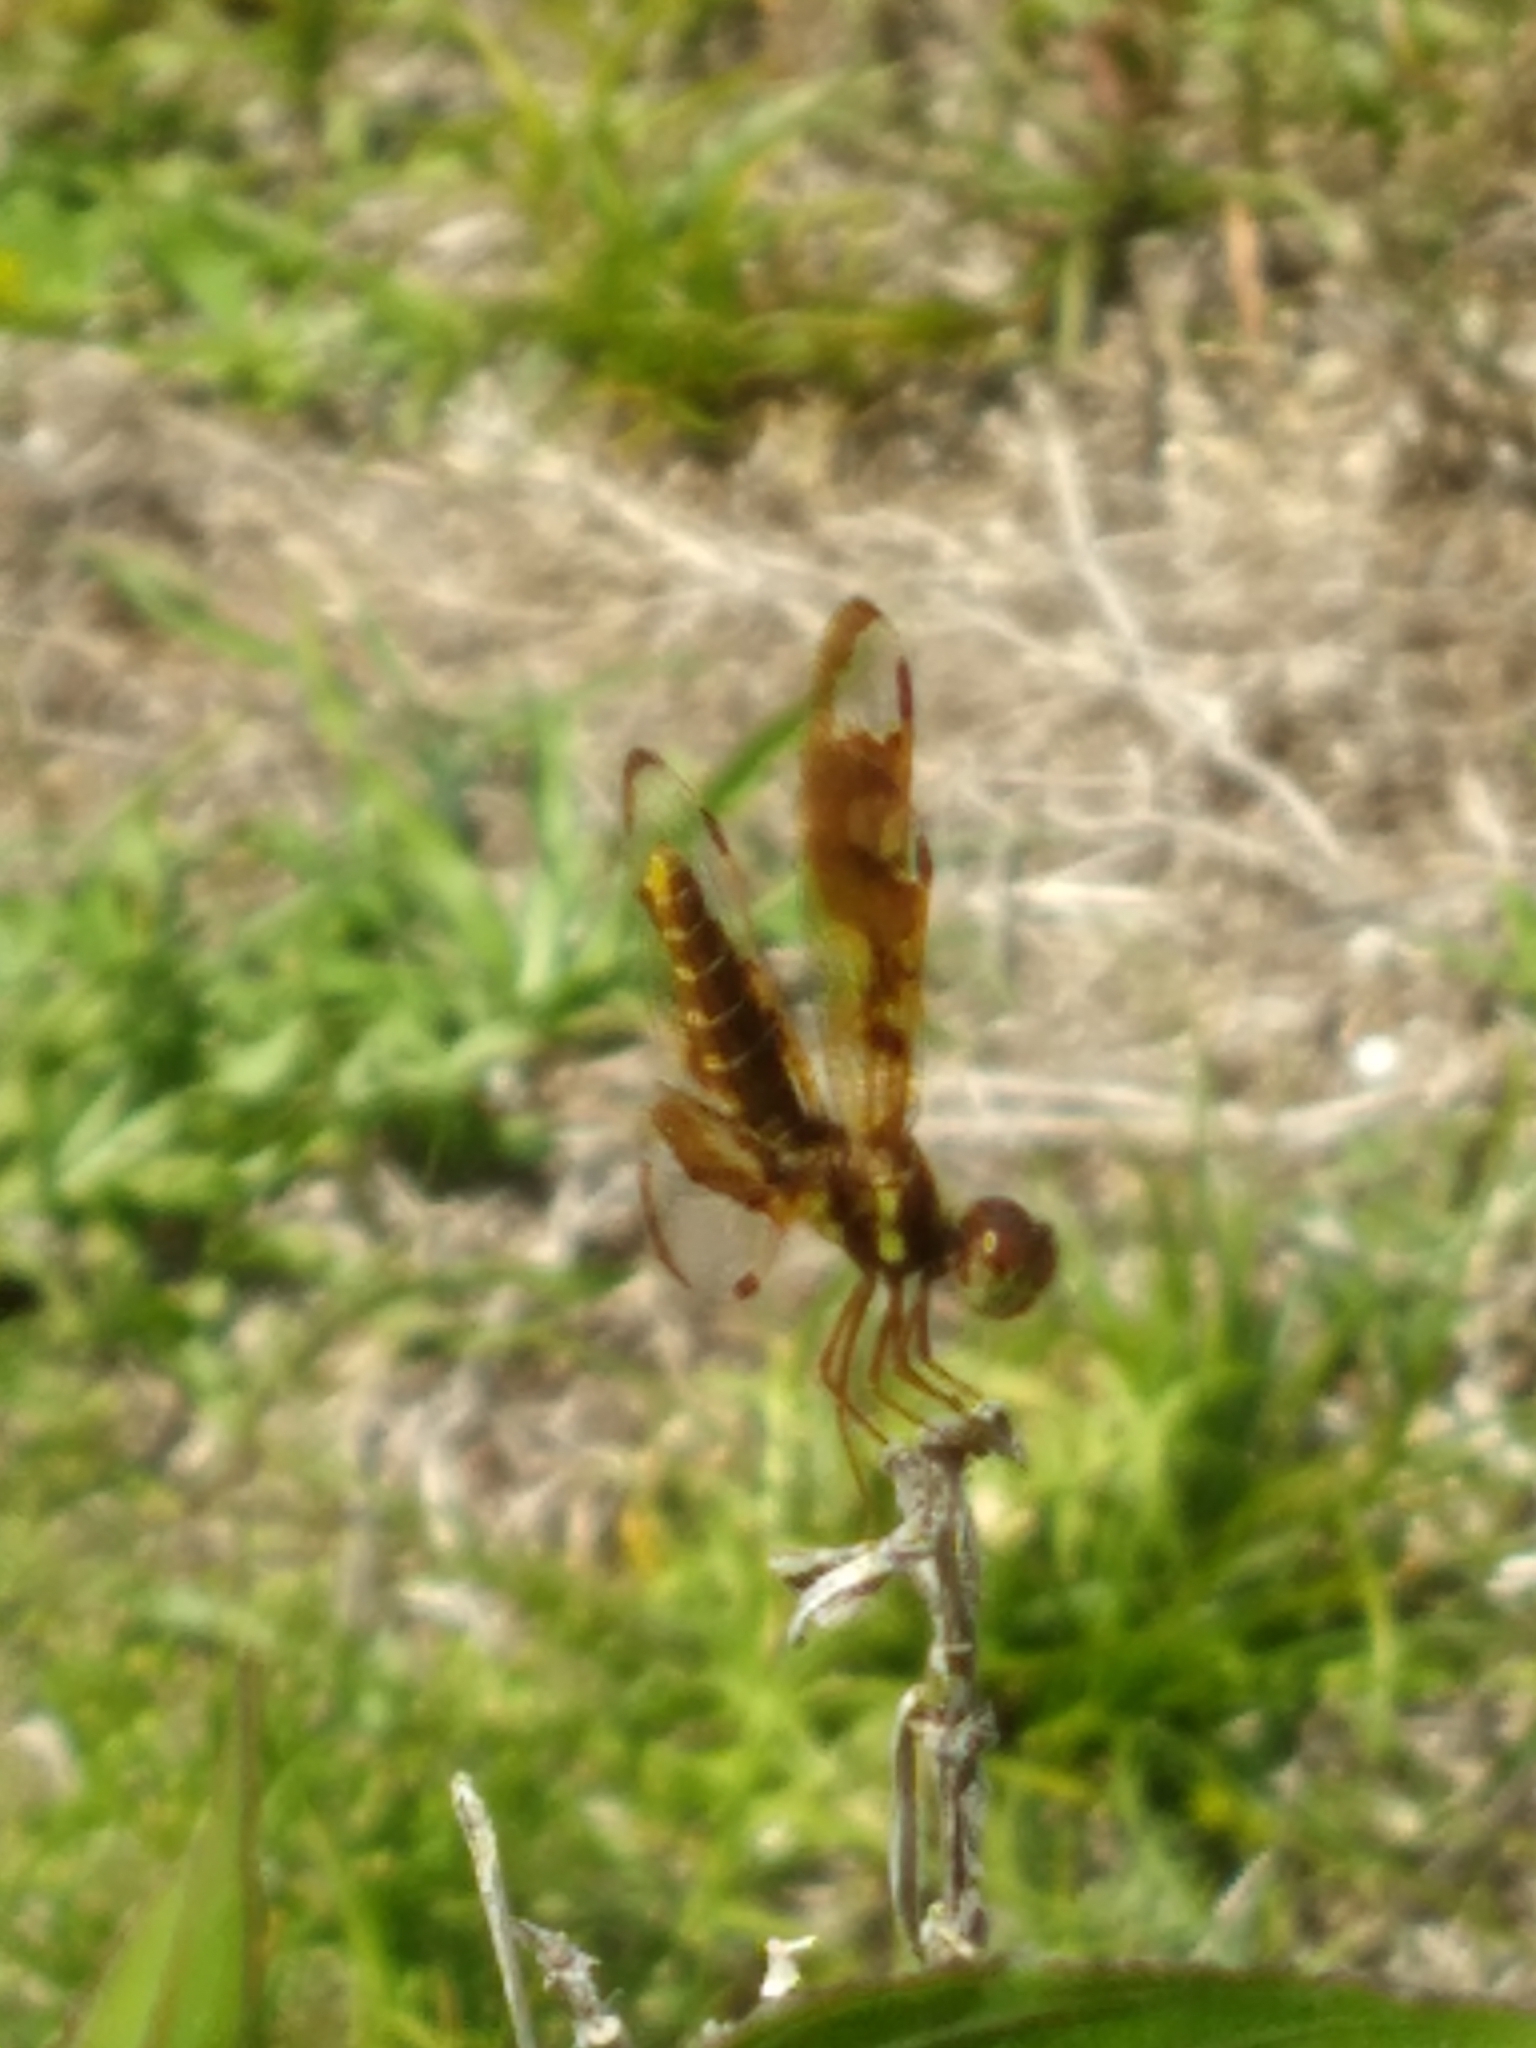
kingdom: Animalia
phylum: Arthropoda
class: Insecta
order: Odonata
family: Libellulidae
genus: Perithemis
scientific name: Perithemis tenera
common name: Eastern amberwing
